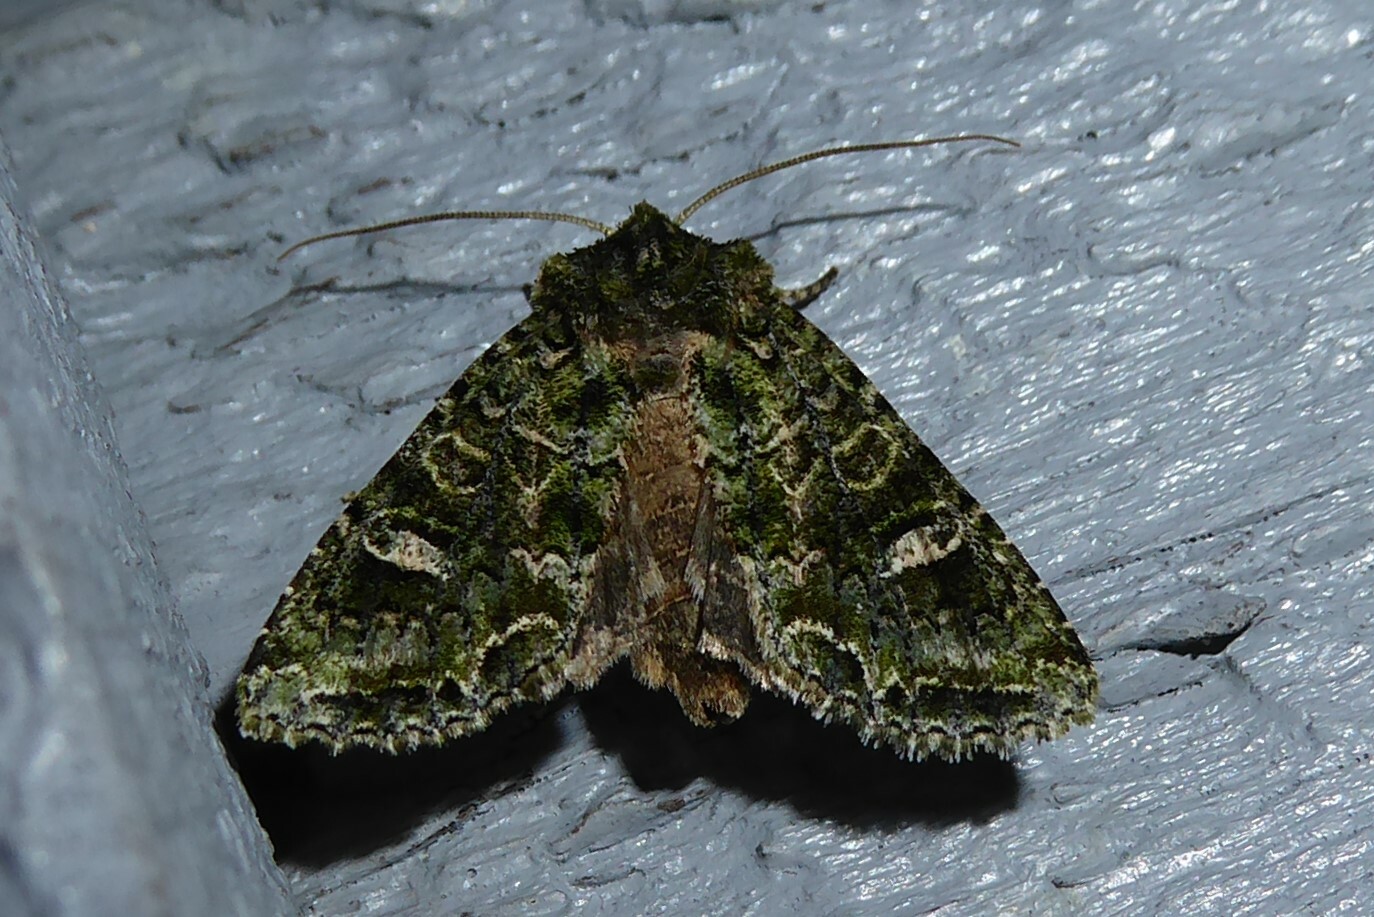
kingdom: Animalia
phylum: Arthropoda
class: Insecta
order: Lepidoptera
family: Noctuidae
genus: Ichneutica
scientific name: Ichneutica
